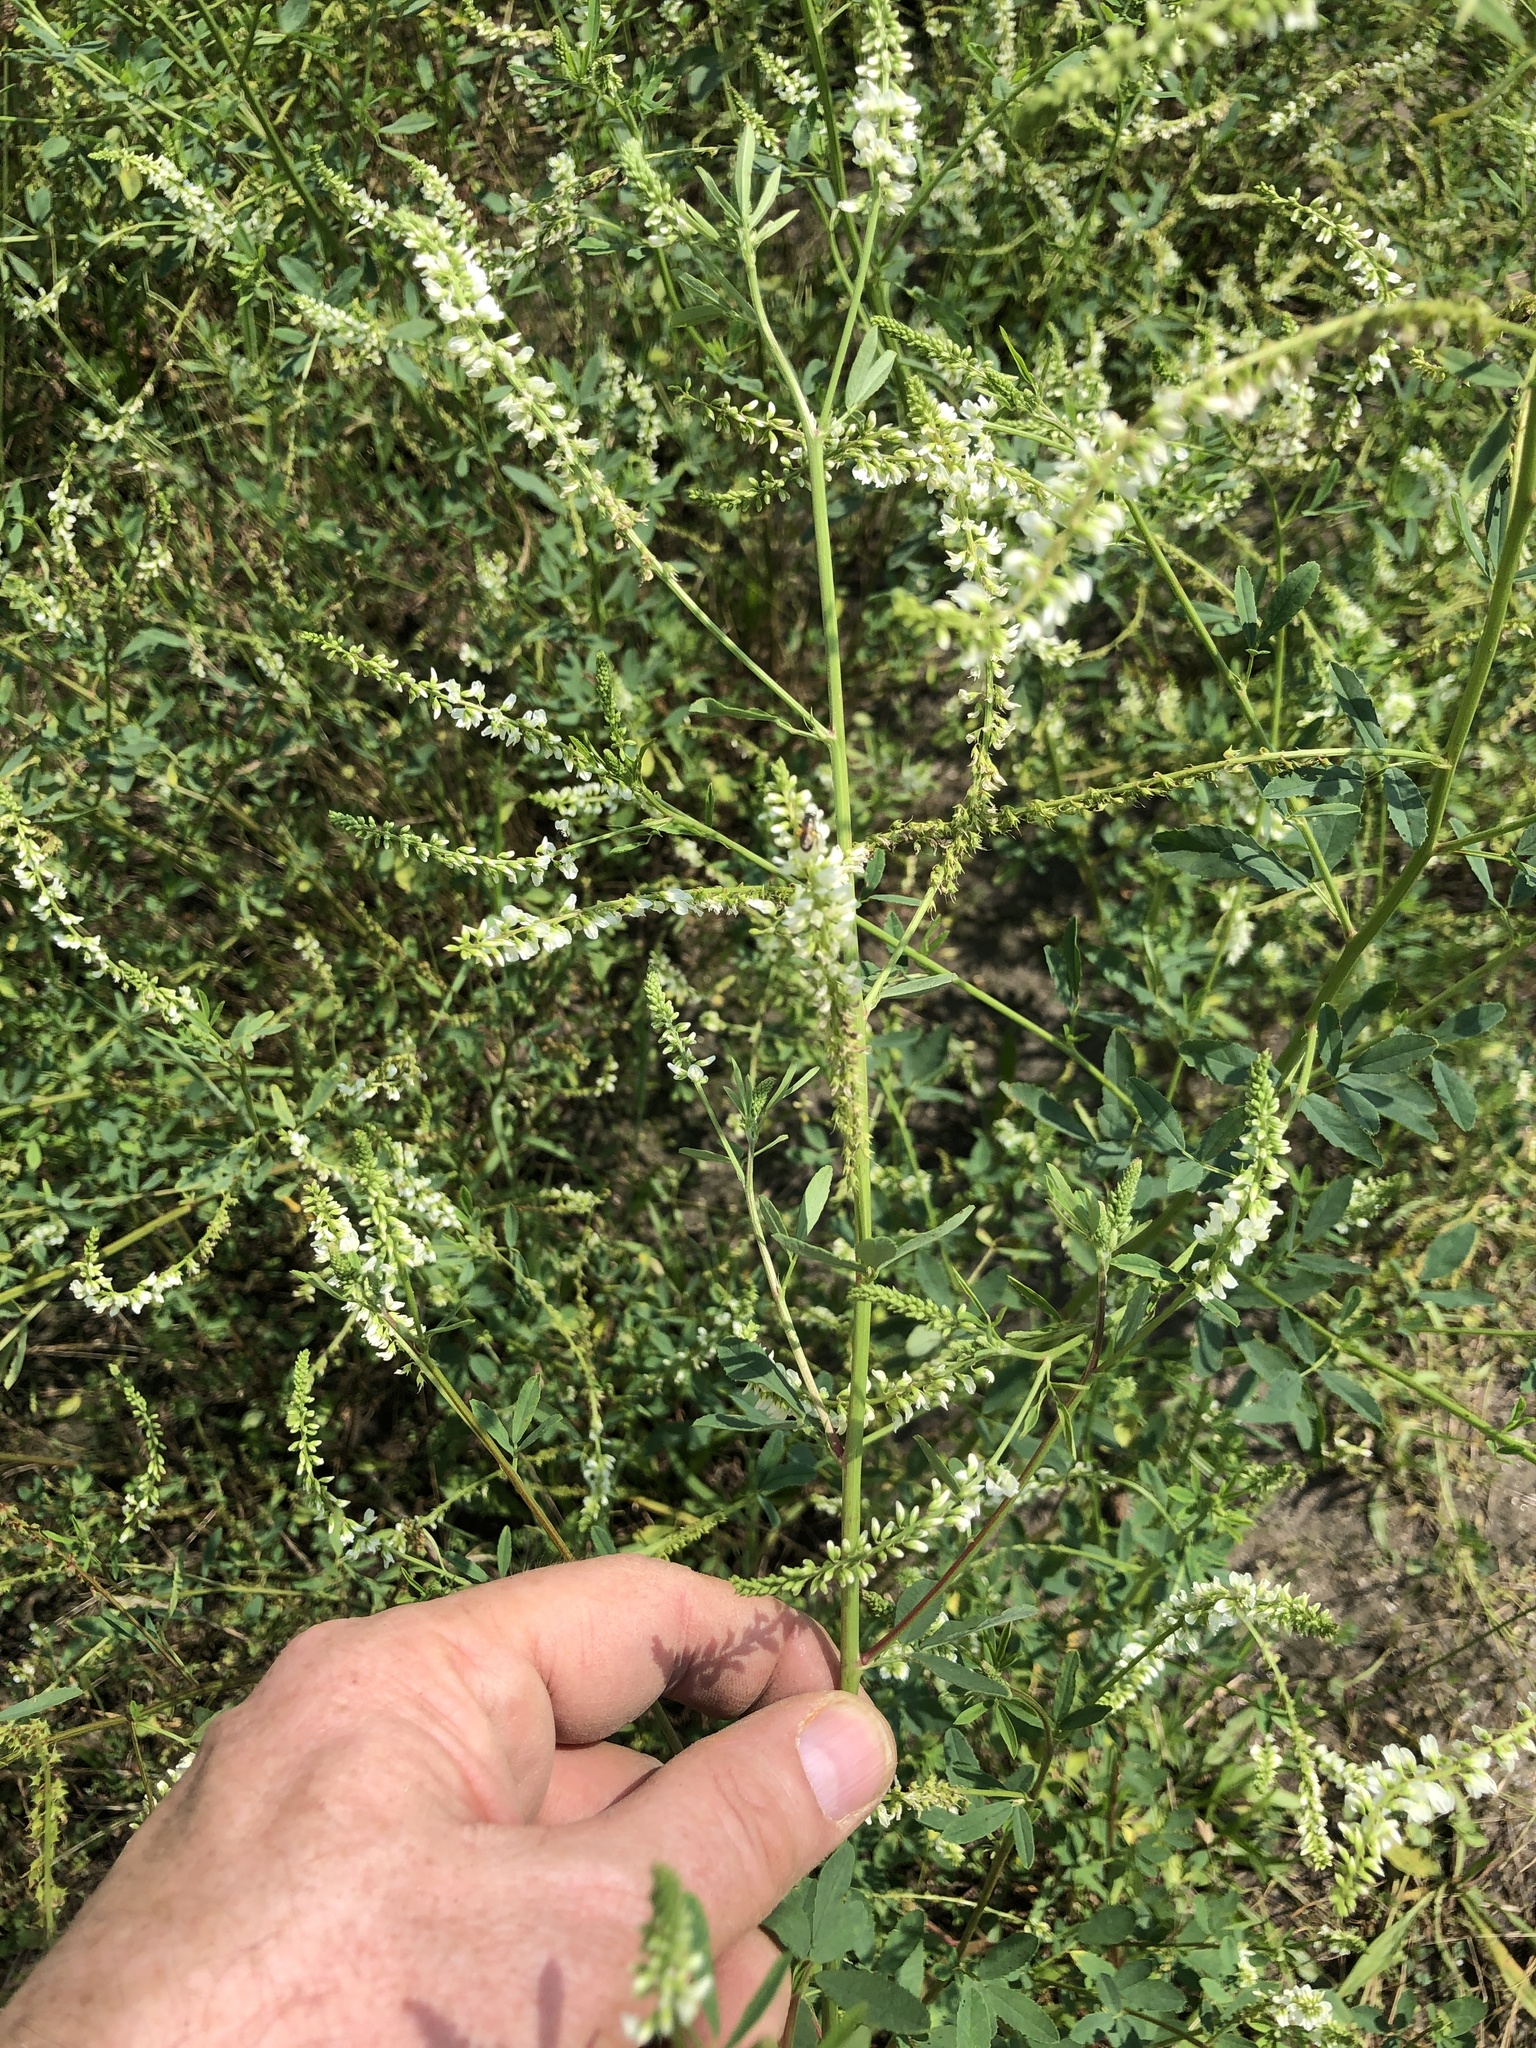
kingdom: Plantae
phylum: Tracheophyta
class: Magnoliopsida
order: Fabales
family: Fabaceae
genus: Melilotus
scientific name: Melilotus albus
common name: White melilot
